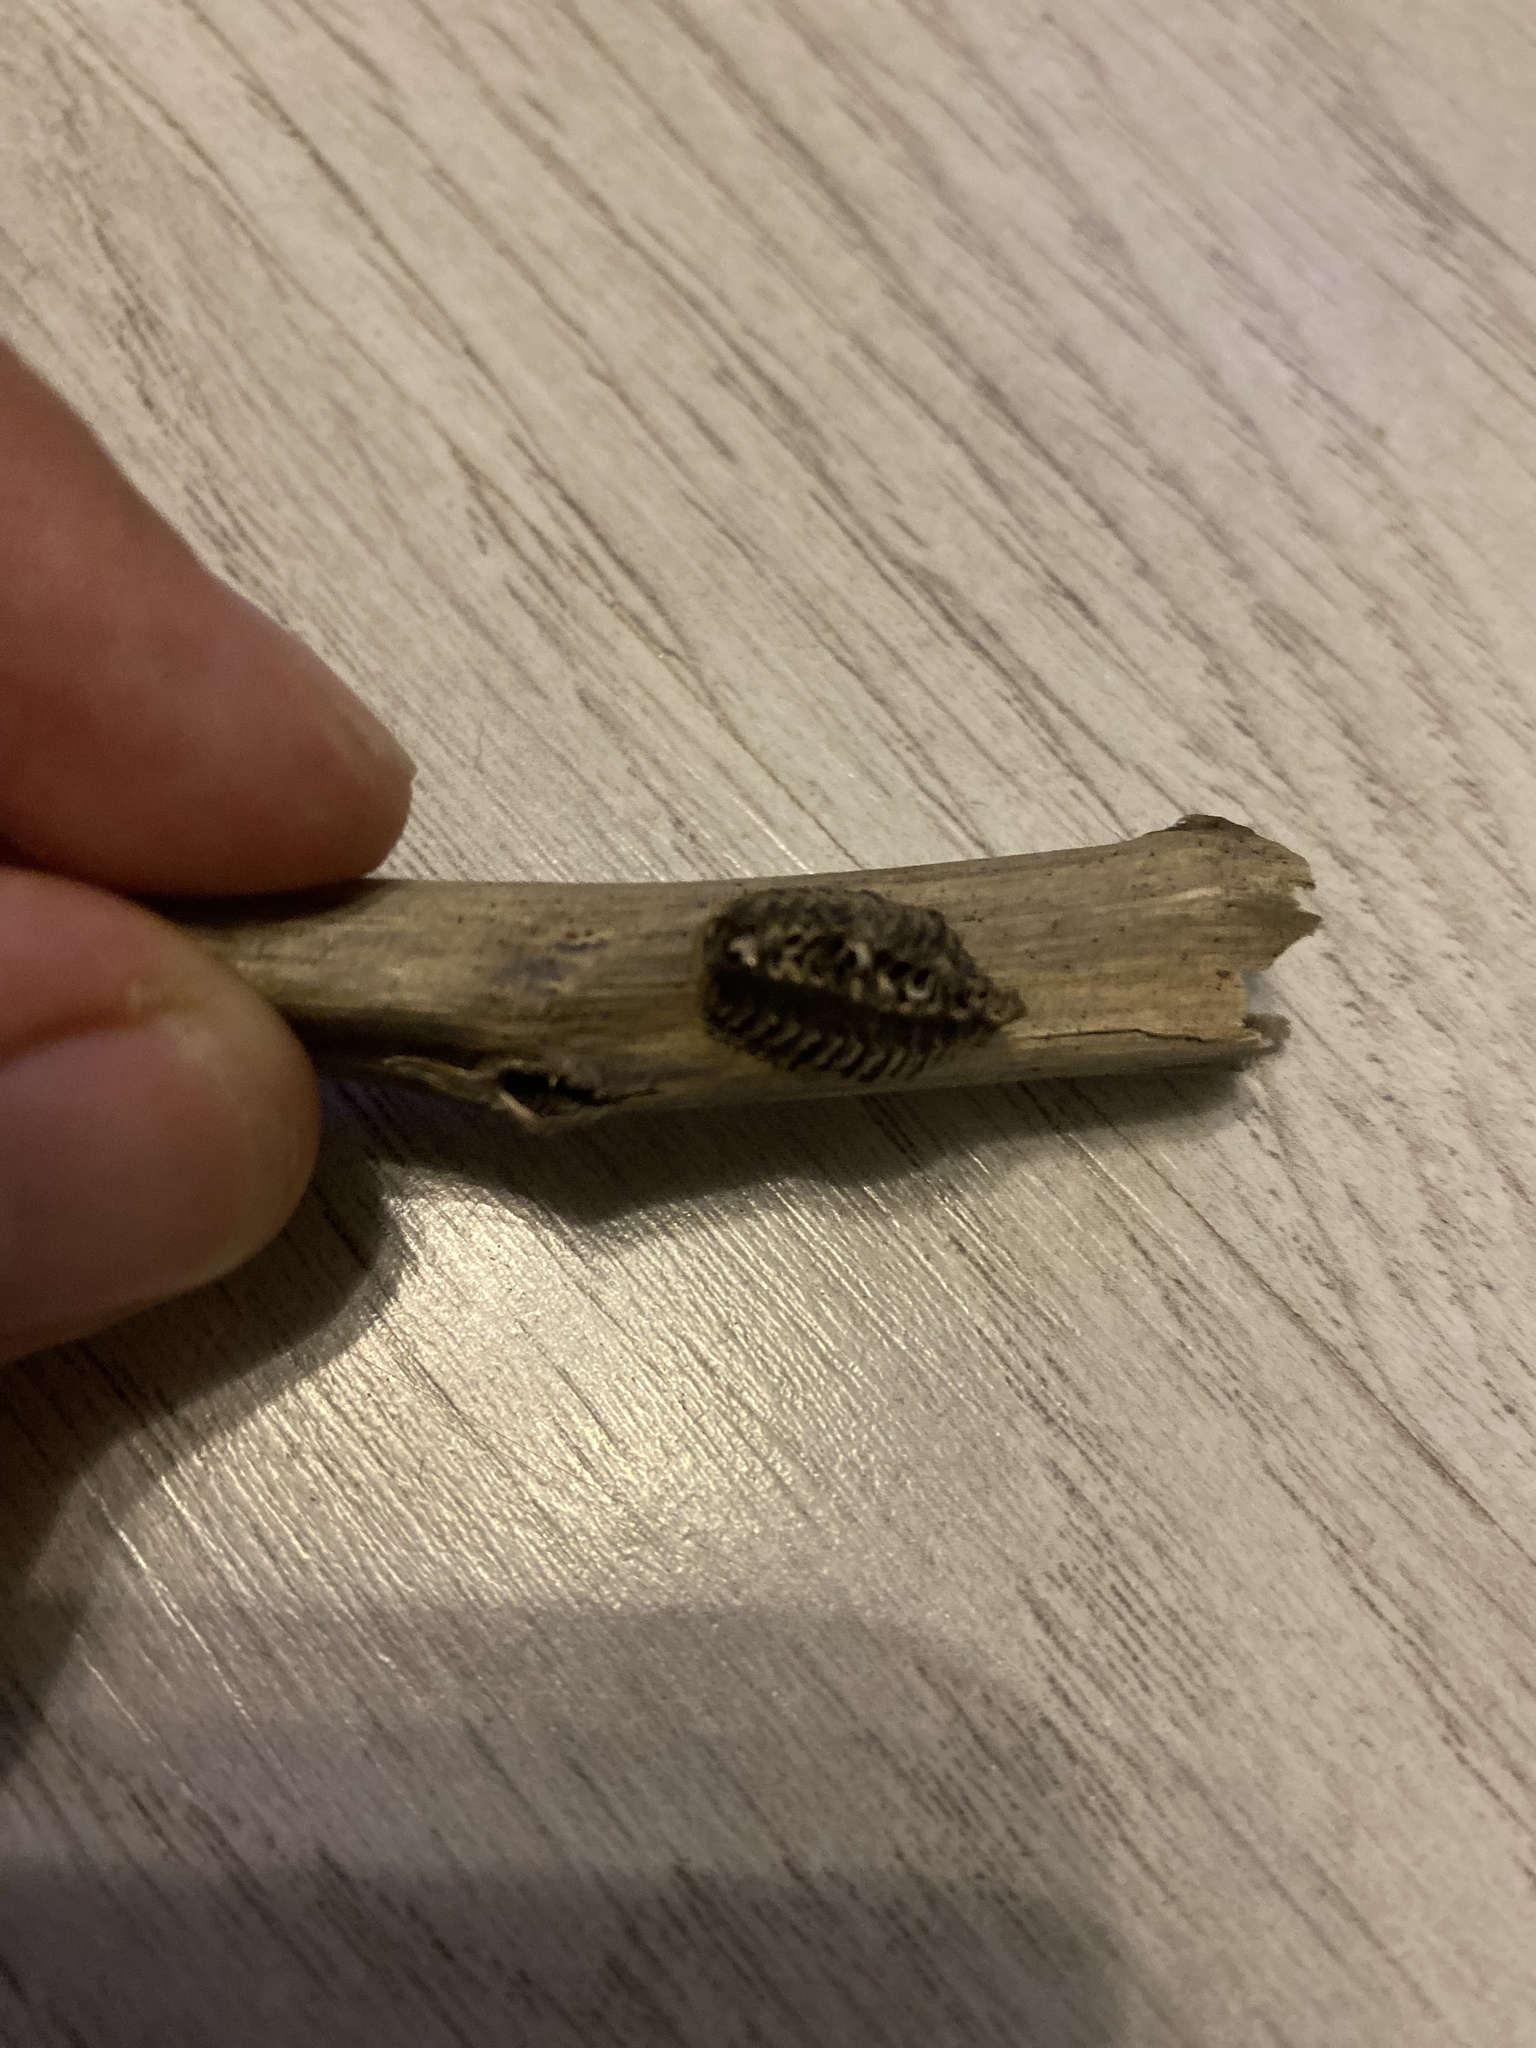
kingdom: Animalia
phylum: Arthropoda
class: Insecta
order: Mantodea
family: Eremiaphilidae
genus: Iris
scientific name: Iris polystictica
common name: Dot-winged mantis
